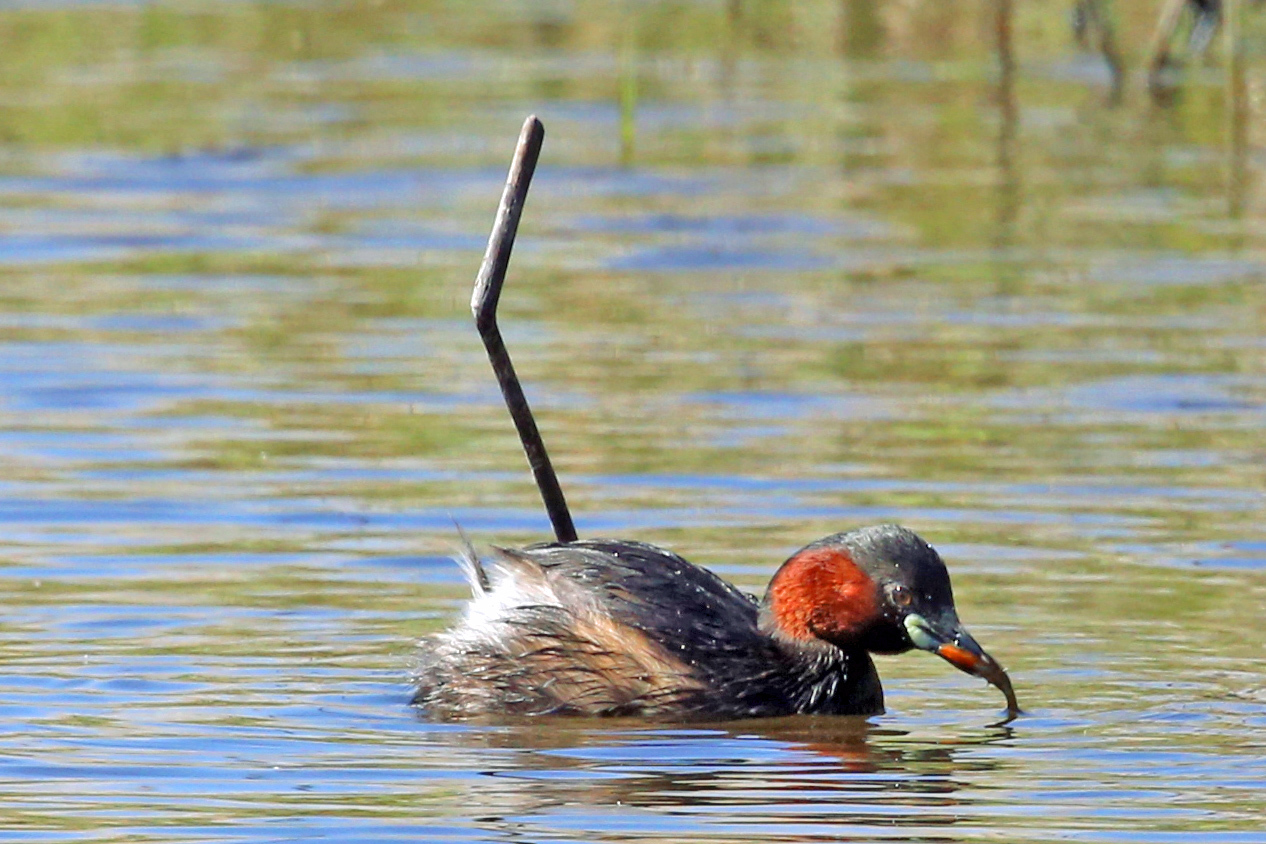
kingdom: Animalia
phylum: Chordata
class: Aves
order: Podicipediformes
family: Podicipedidae
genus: Tachybaptus
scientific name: Tachybaptus ruficollis
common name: Little grebe
